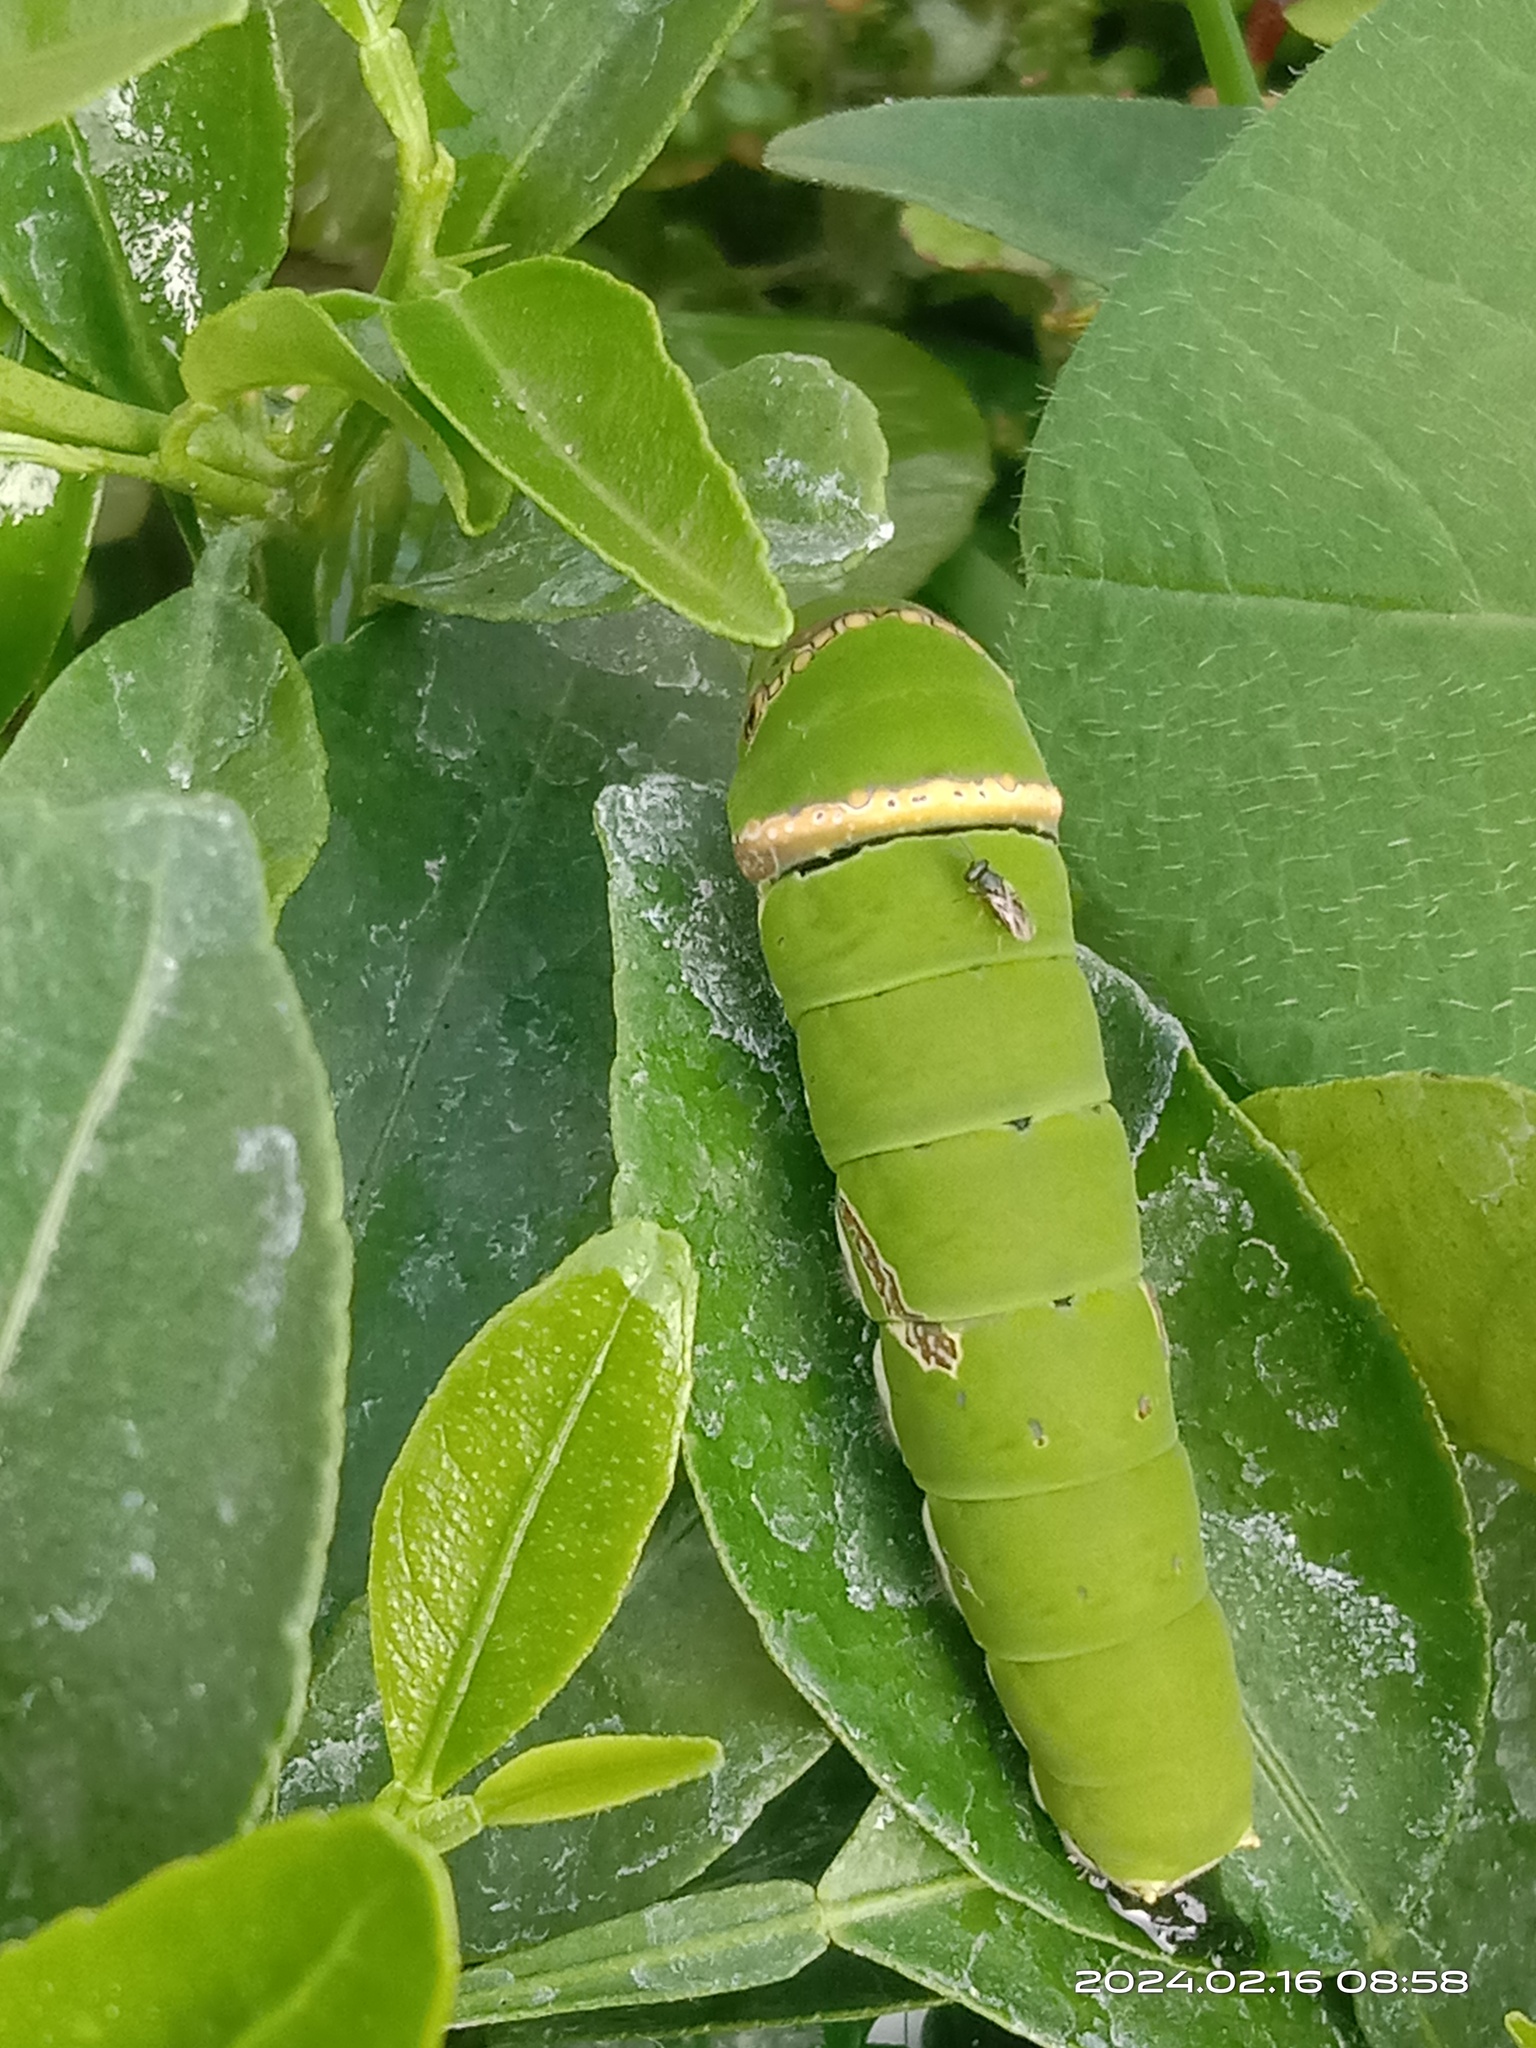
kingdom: Animalia
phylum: Arthropoda
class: Insecta
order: Lepidoptera
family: Papilionidae
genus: Papilio
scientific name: Papilio demoleus
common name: Lime butterfly
